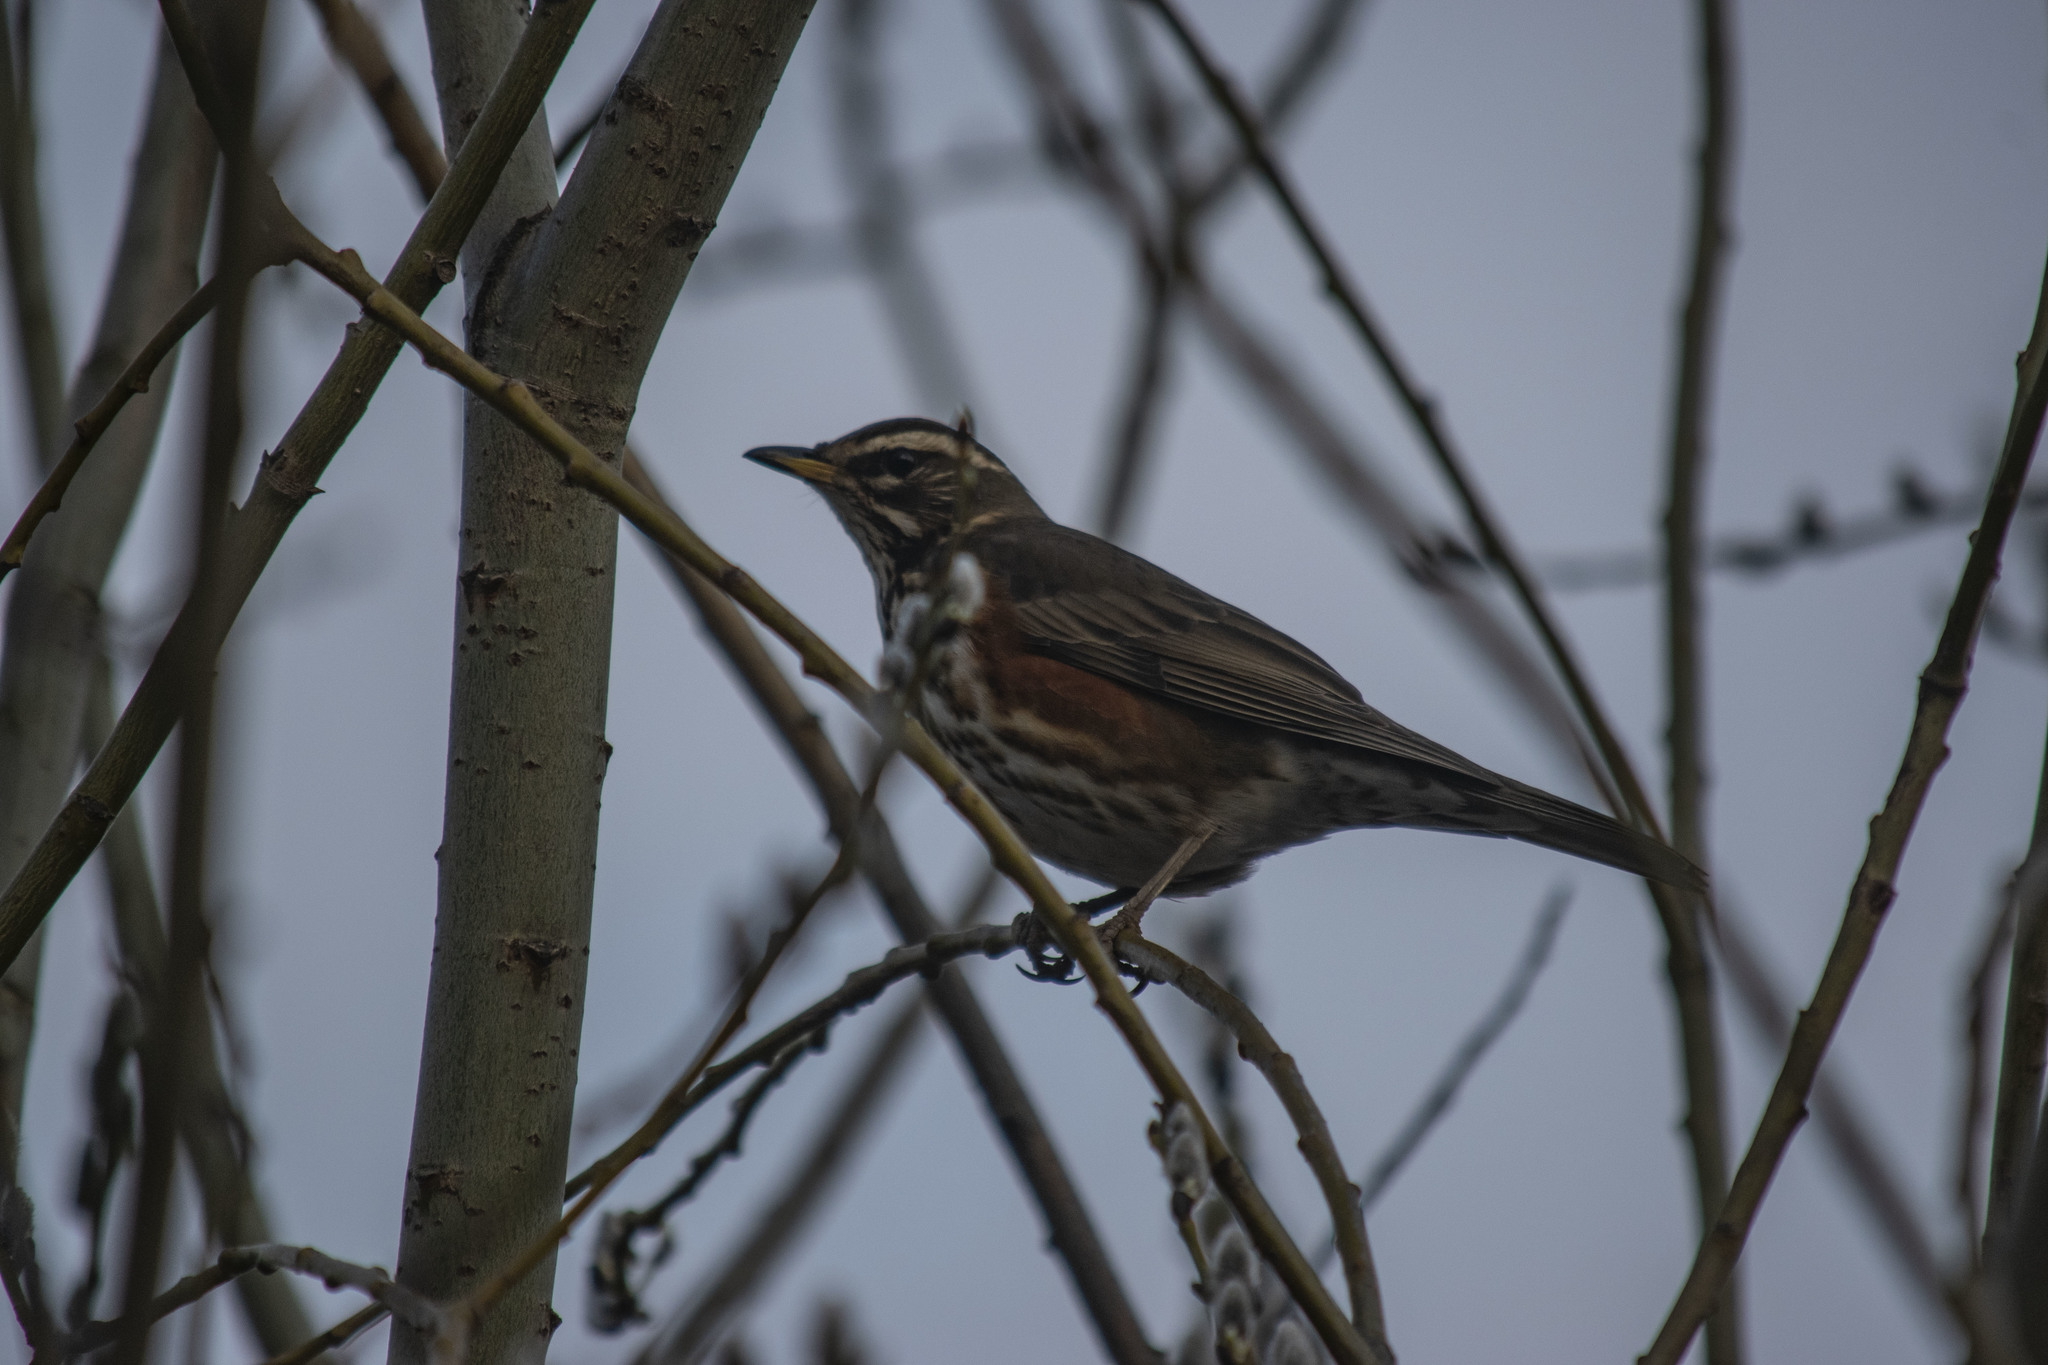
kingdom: Animalia
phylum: Chordata
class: Aves
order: Passeriformes
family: Turdidae
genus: Turdus
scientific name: Turdus iliacus
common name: Redwing
